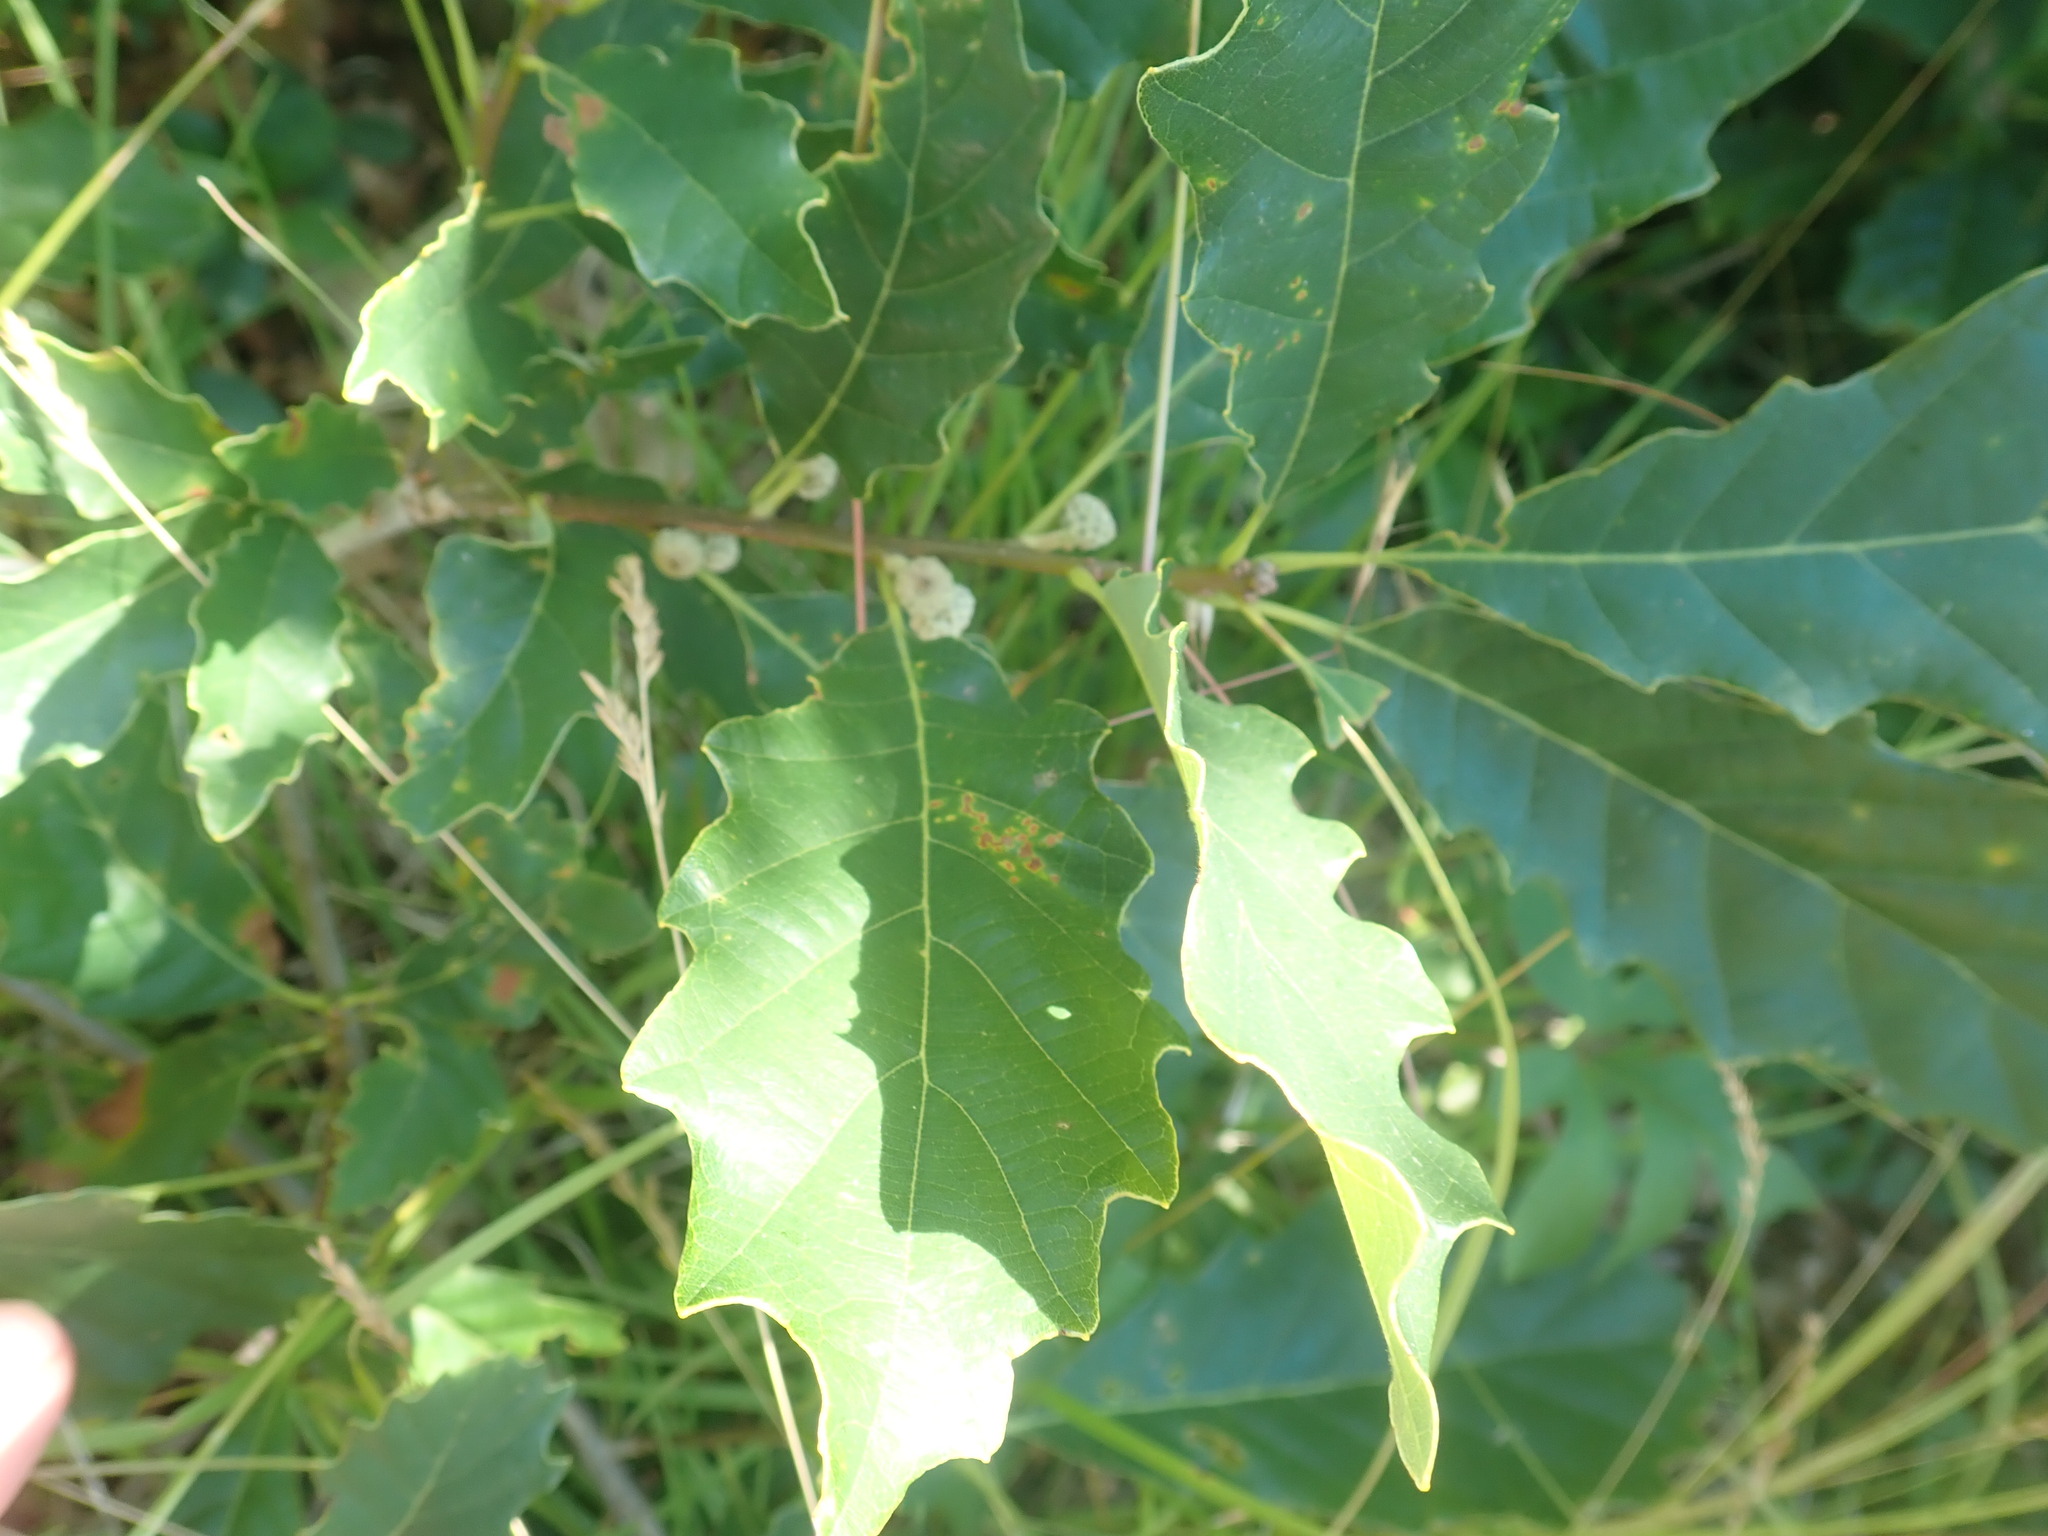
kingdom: Plantae
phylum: Tracheophyta
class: Magnoliopsida
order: Fagales
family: Fagaceae
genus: Quercus
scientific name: Quercus prinoides
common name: Dwarf chinkapin oak
